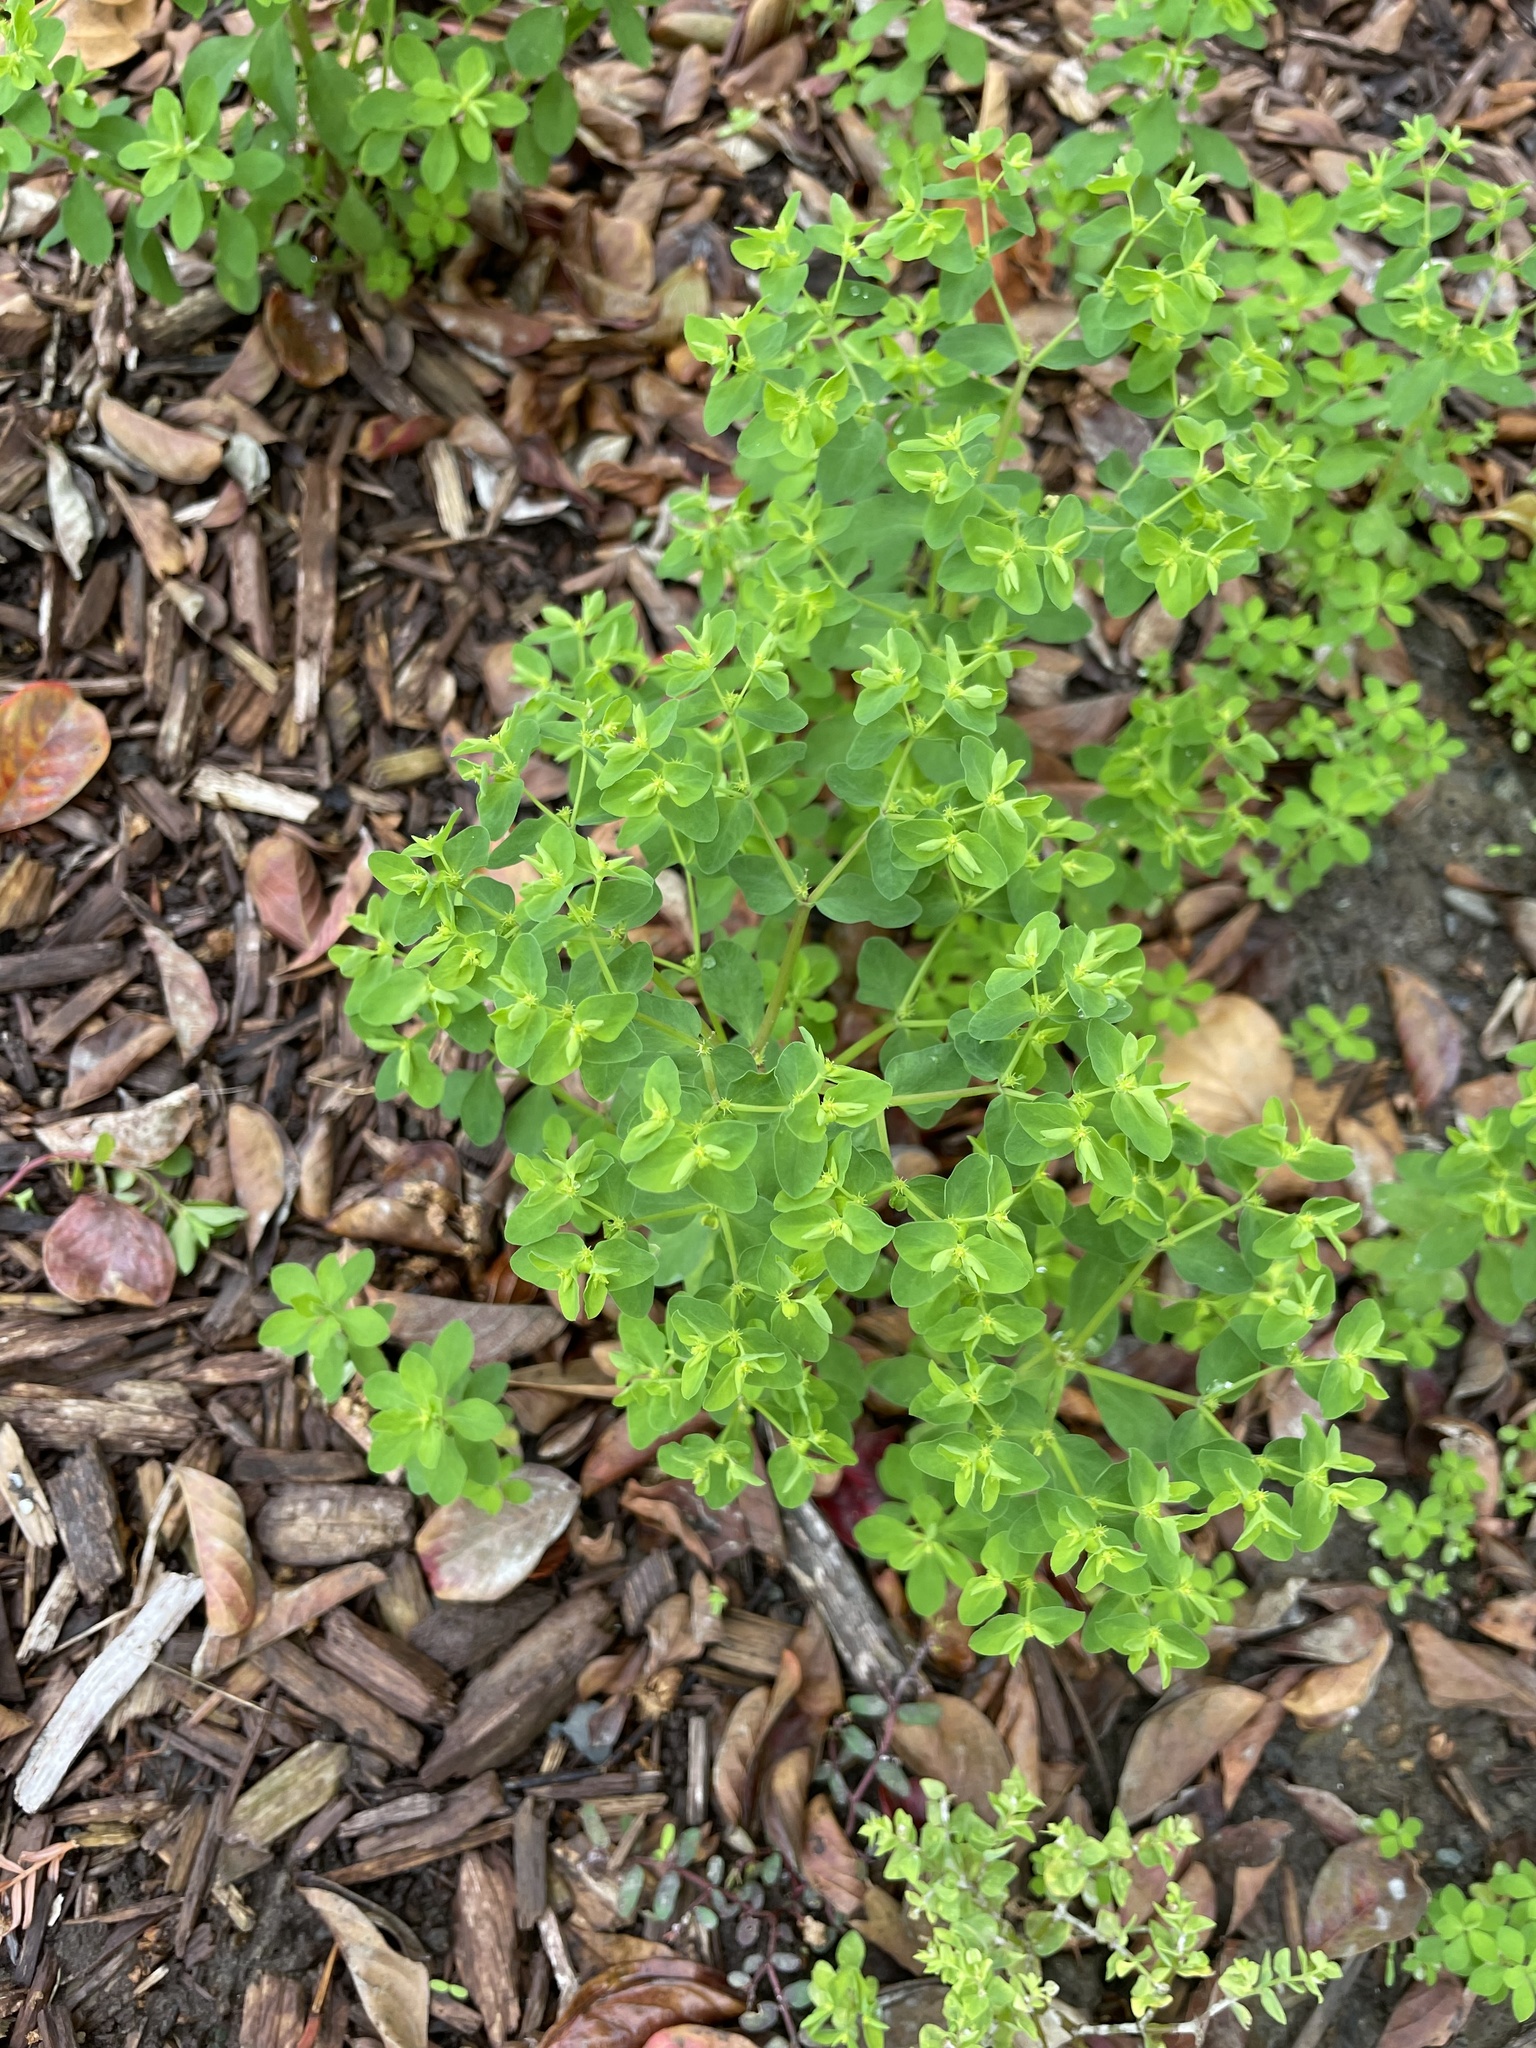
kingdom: Plantae
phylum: Tracheophyta
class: Magnoliopsida
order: Malpighiales
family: Euphorbiaceae
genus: Euphorbia
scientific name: Euphorbia peplus
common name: Petty spurge
